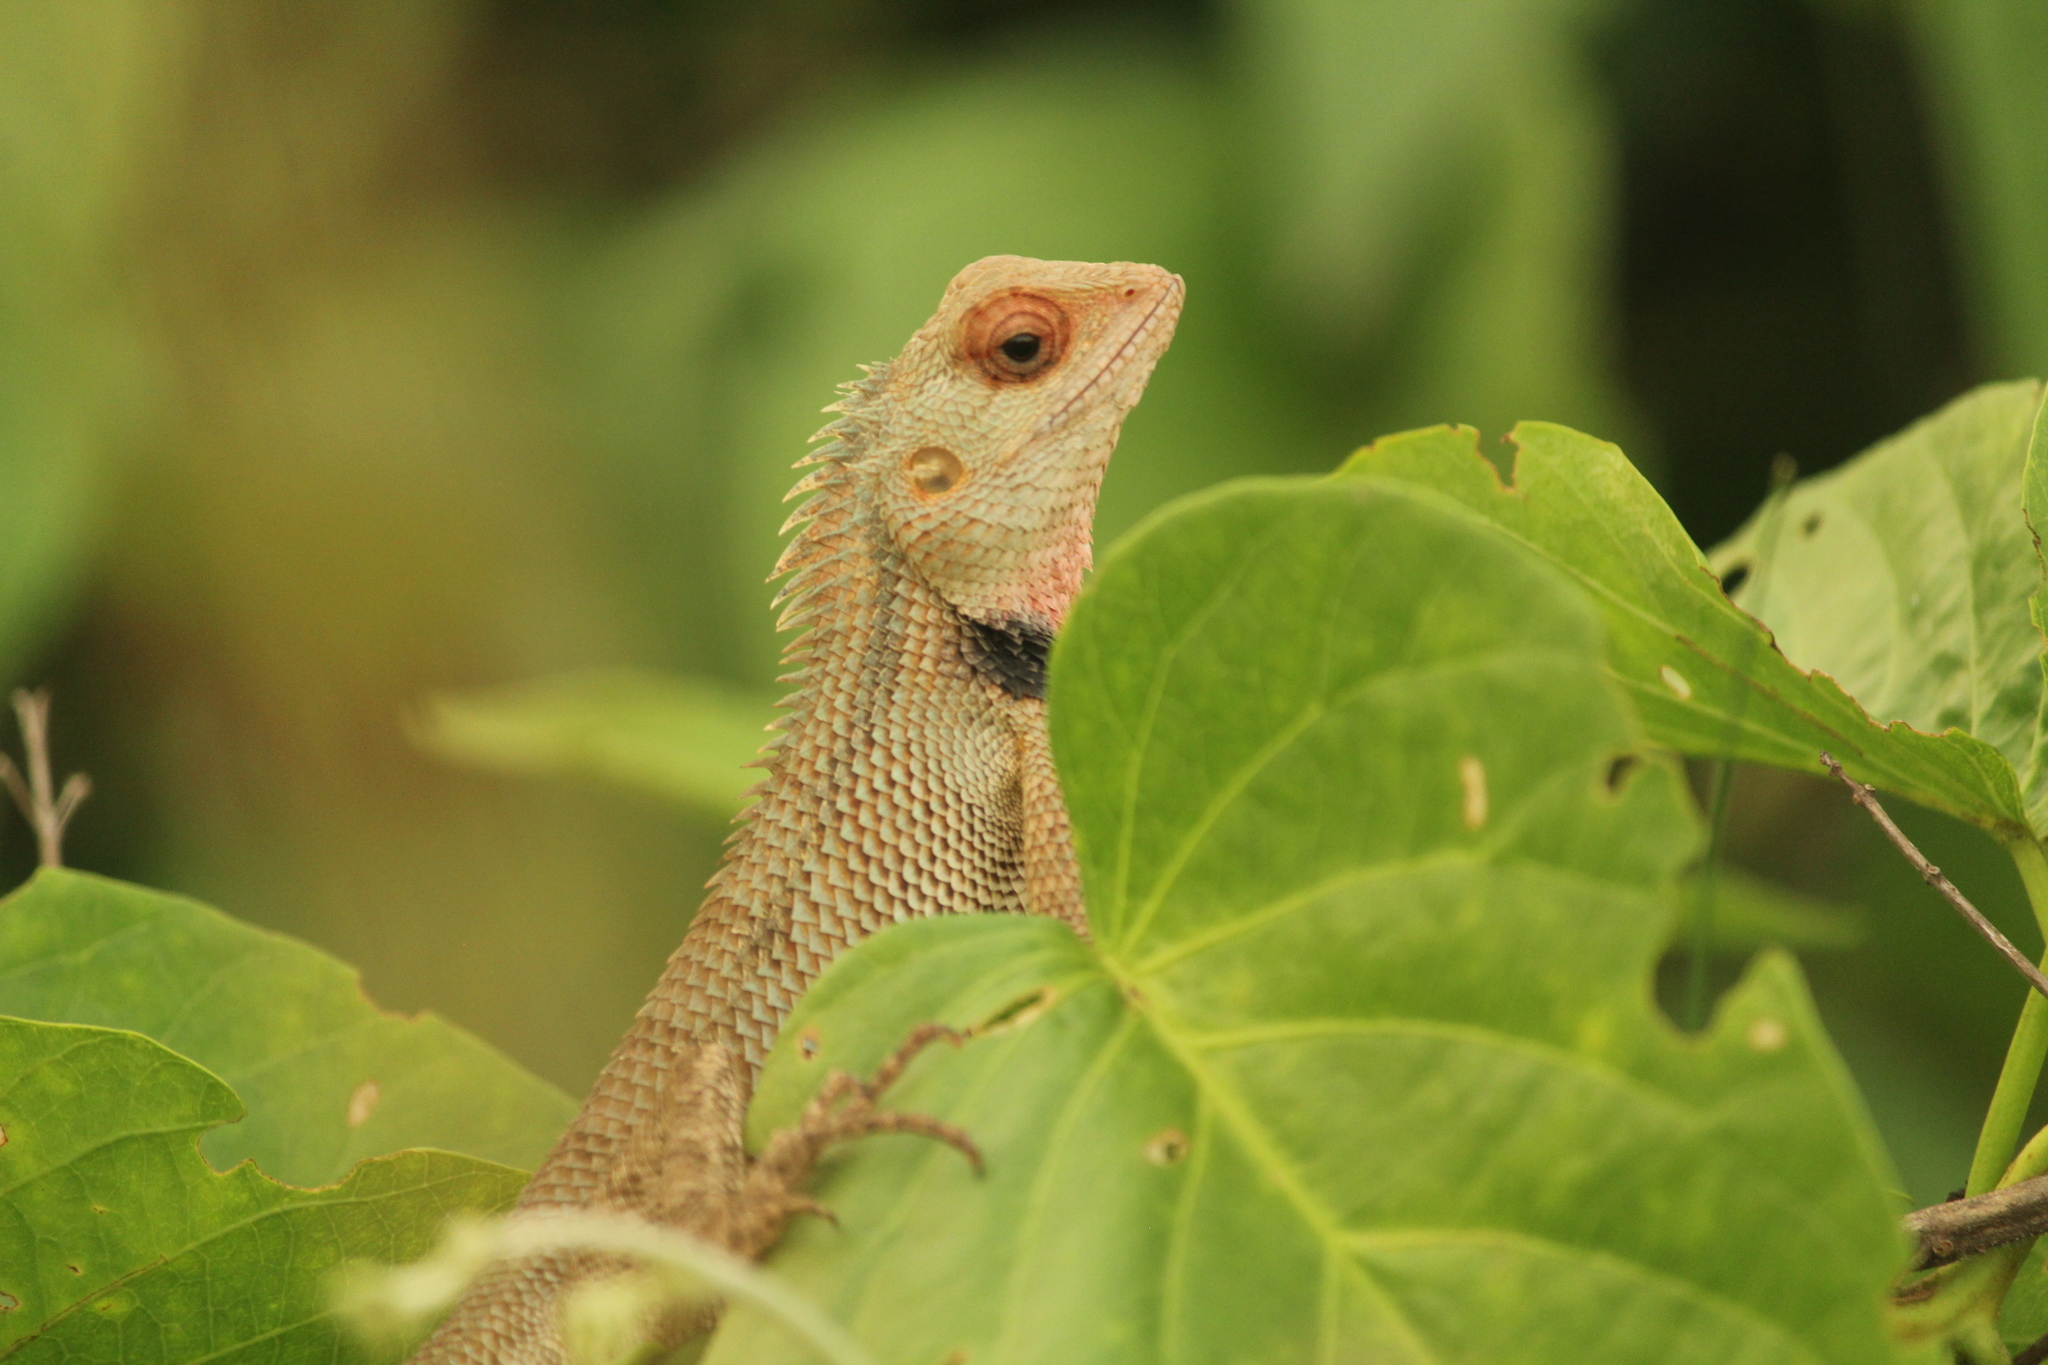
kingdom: Animalia
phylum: Chordata
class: Squamata
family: Agamidae
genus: Calotes
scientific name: Calotes versicolor
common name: Oriental garden lizard
